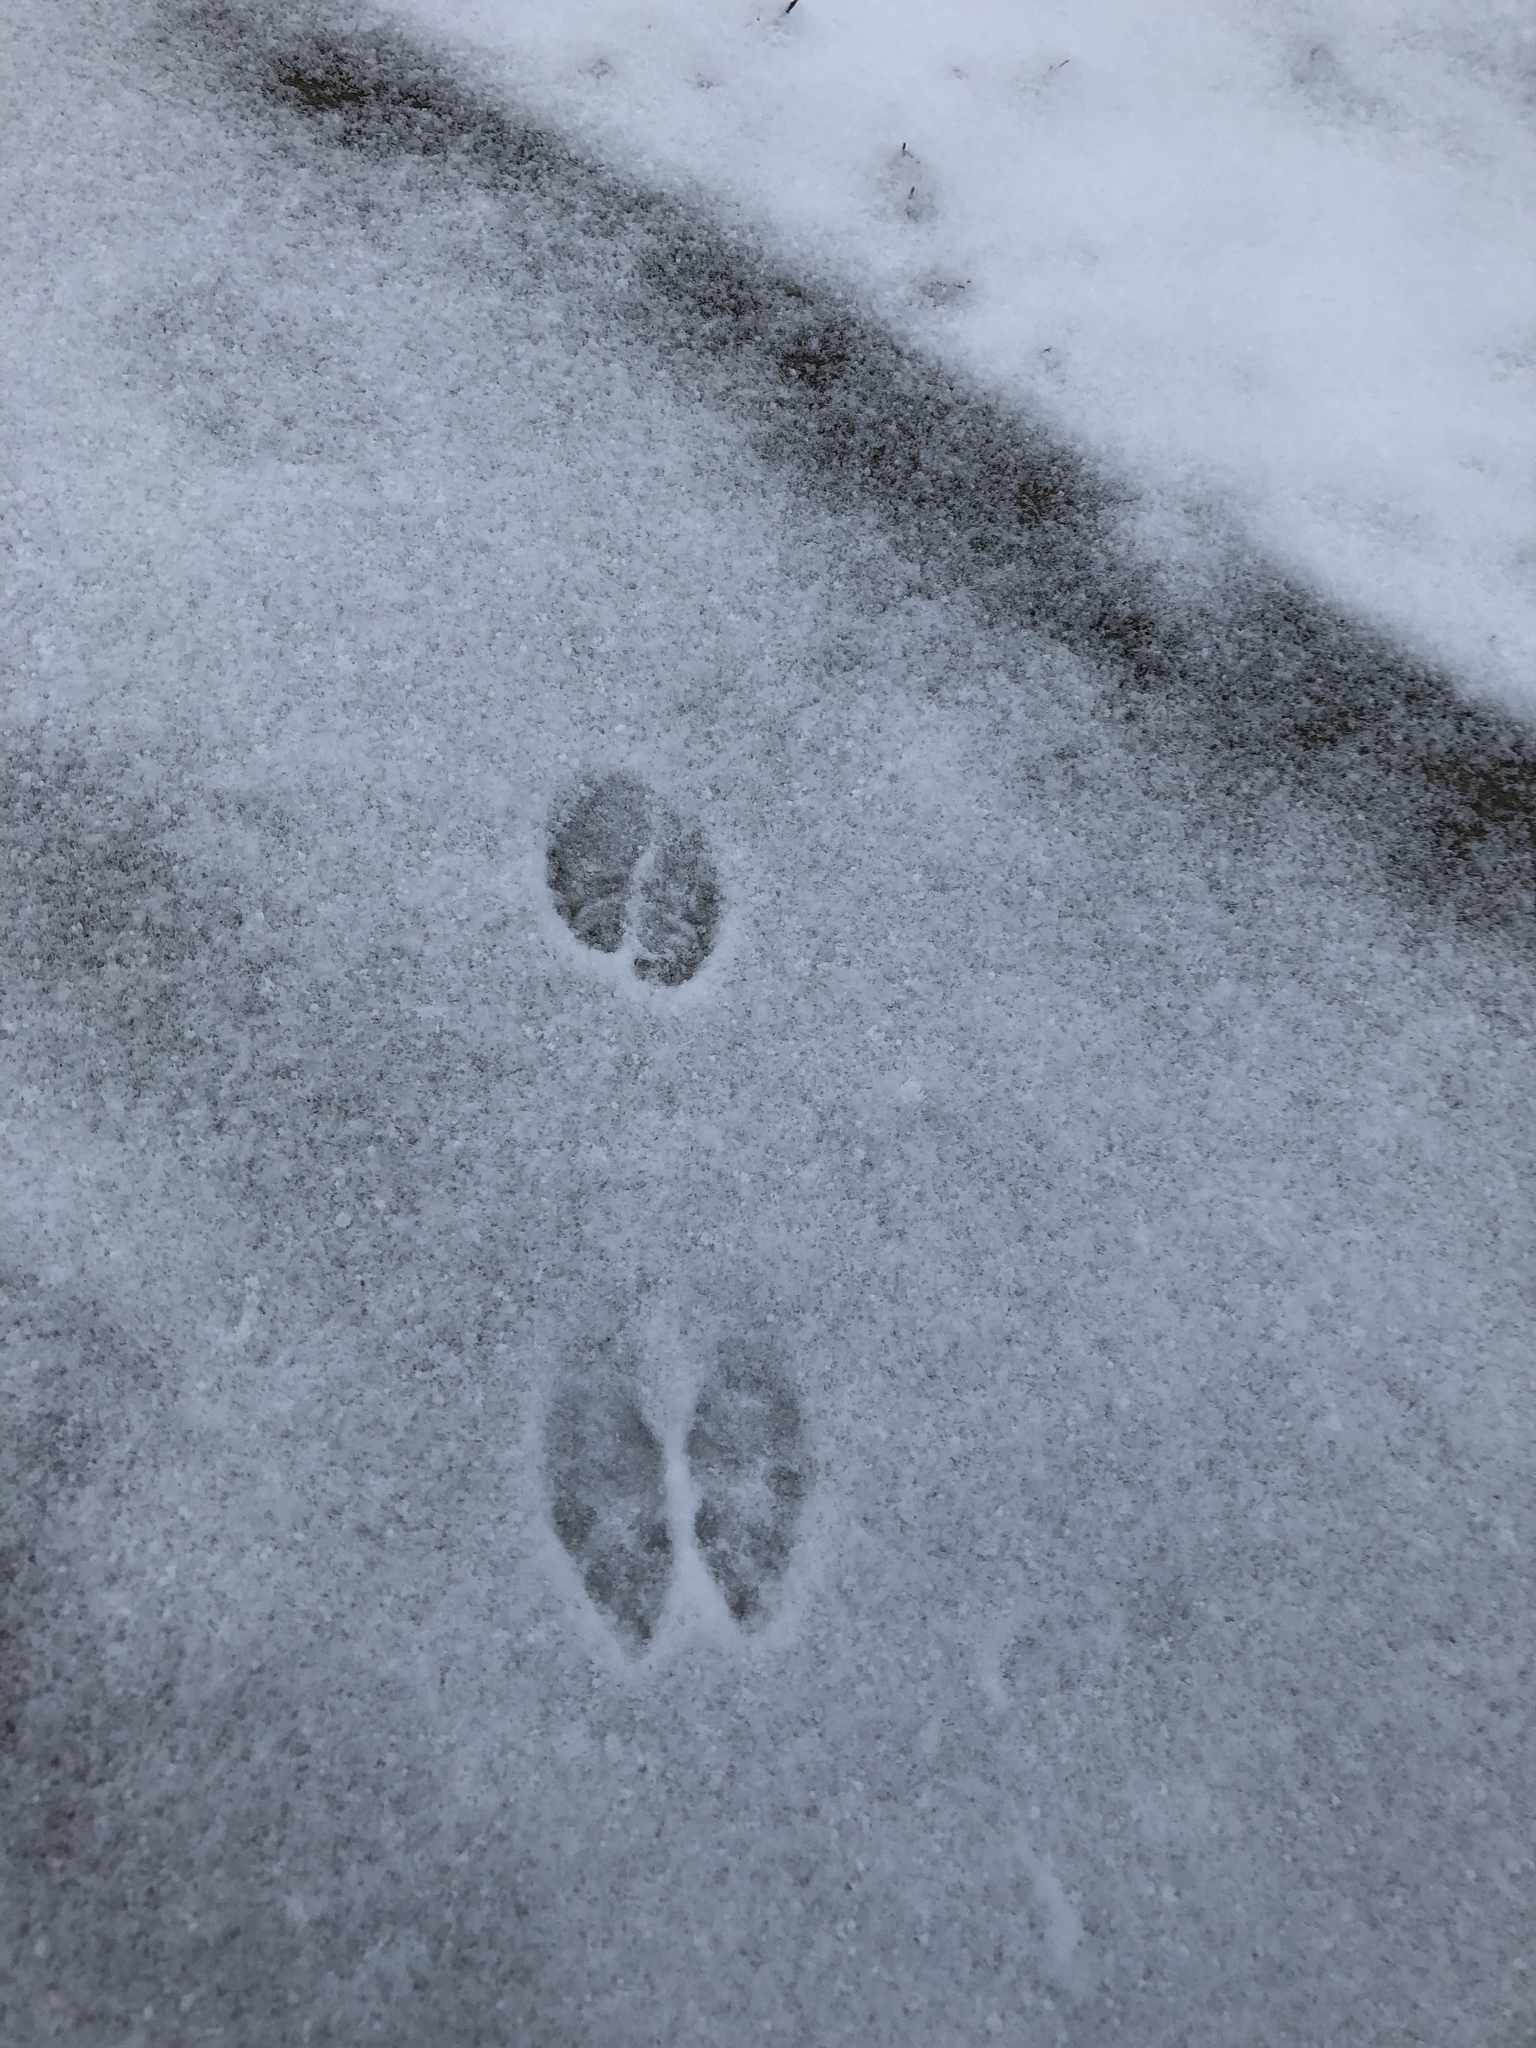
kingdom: Animalia
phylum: Chordata
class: Mammalia
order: Artiodactyla
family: Cervidae
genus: Odocoileus
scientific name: Odocoileus virginianus
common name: White-tailed deer
